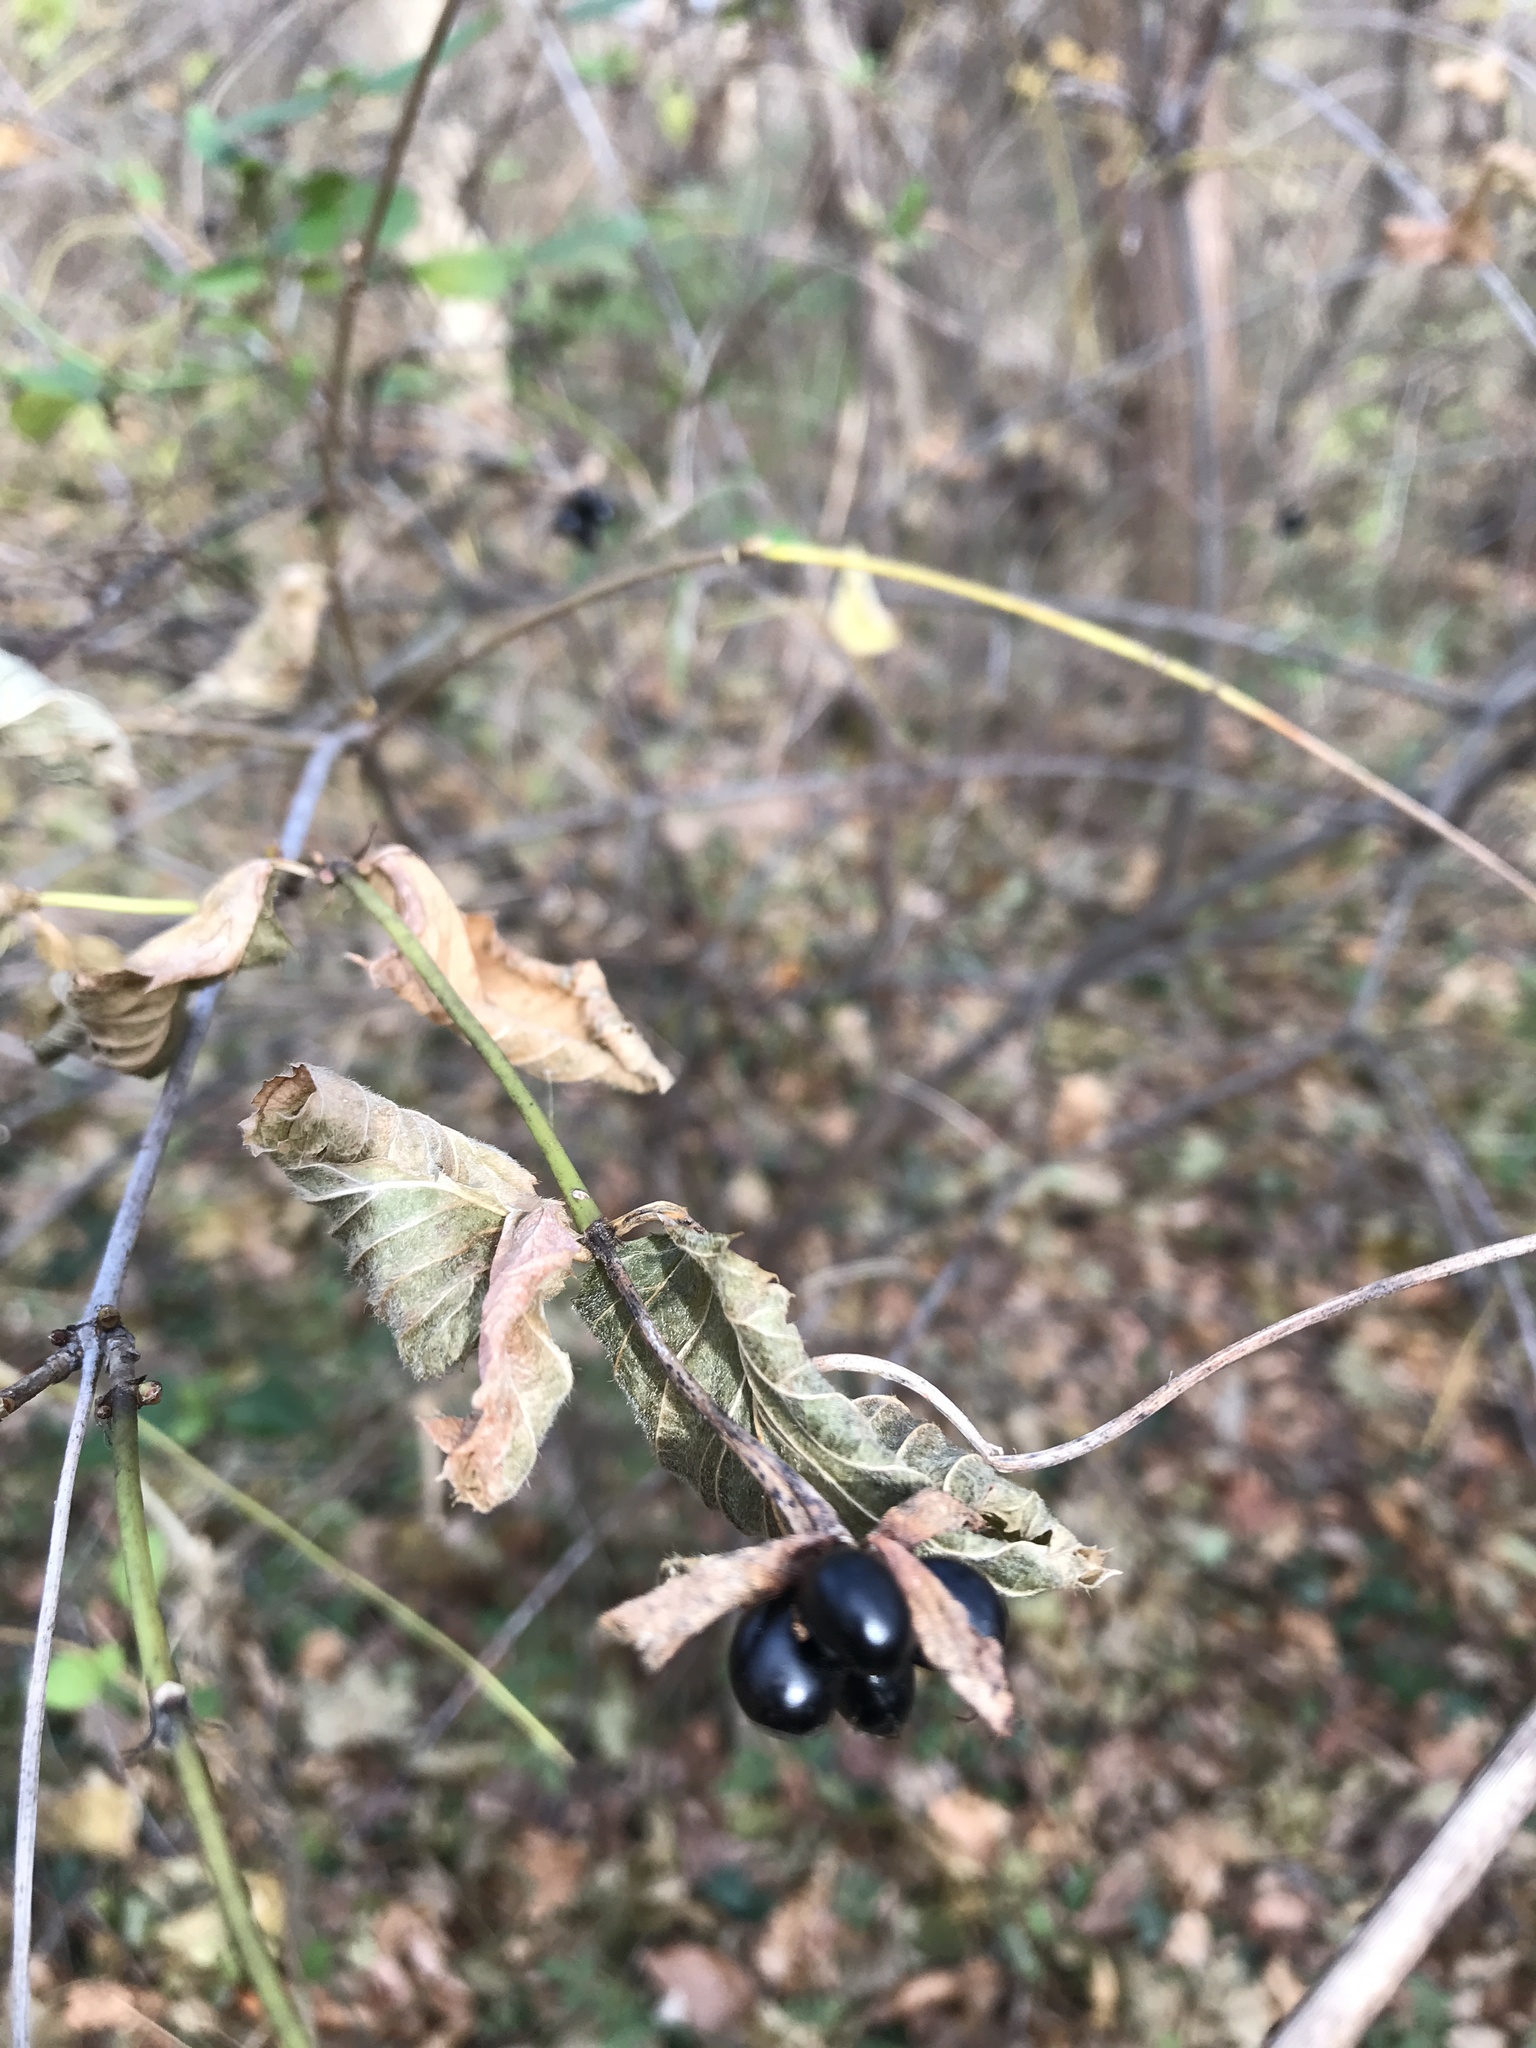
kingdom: Plantae
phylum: Tracheophyta
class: Magnoliopsida
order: Rosales
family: Rosaceae
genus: Rhodotypos
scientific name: Rhodotypos scandens
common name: Jetbead
